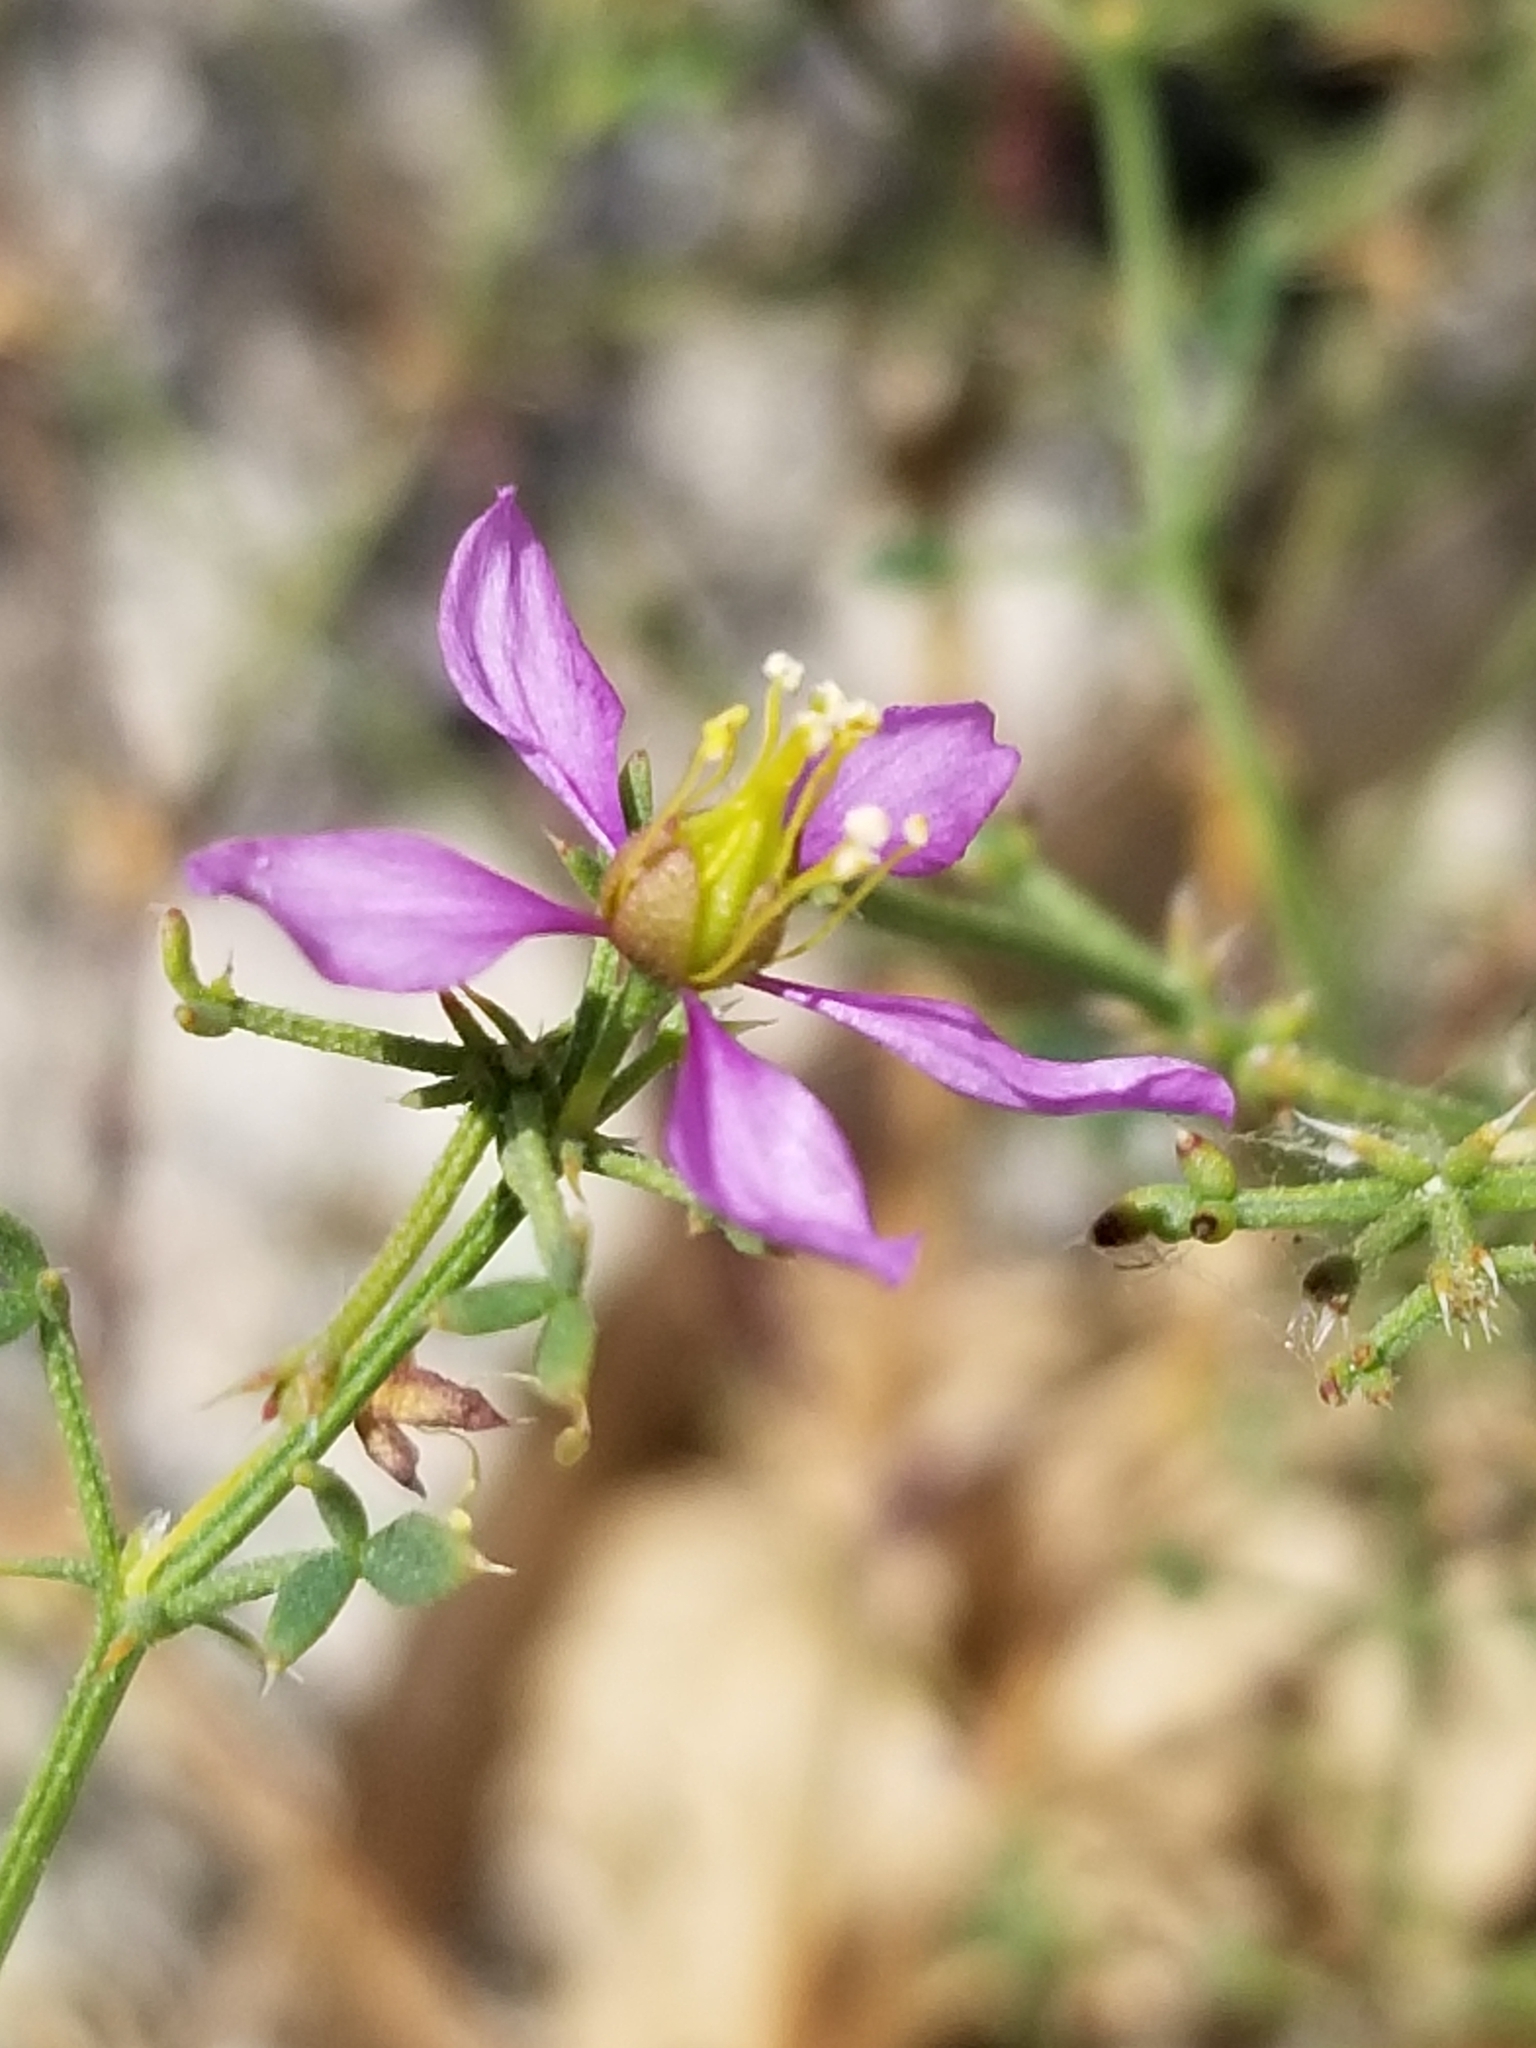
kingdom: Plantae
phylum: Tracheophyta
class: Magnoliopsida
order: Zygophyllales
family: Zygophyllaceae
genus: Fagonia
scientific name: Fagonia laevis
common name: California fagonbush
